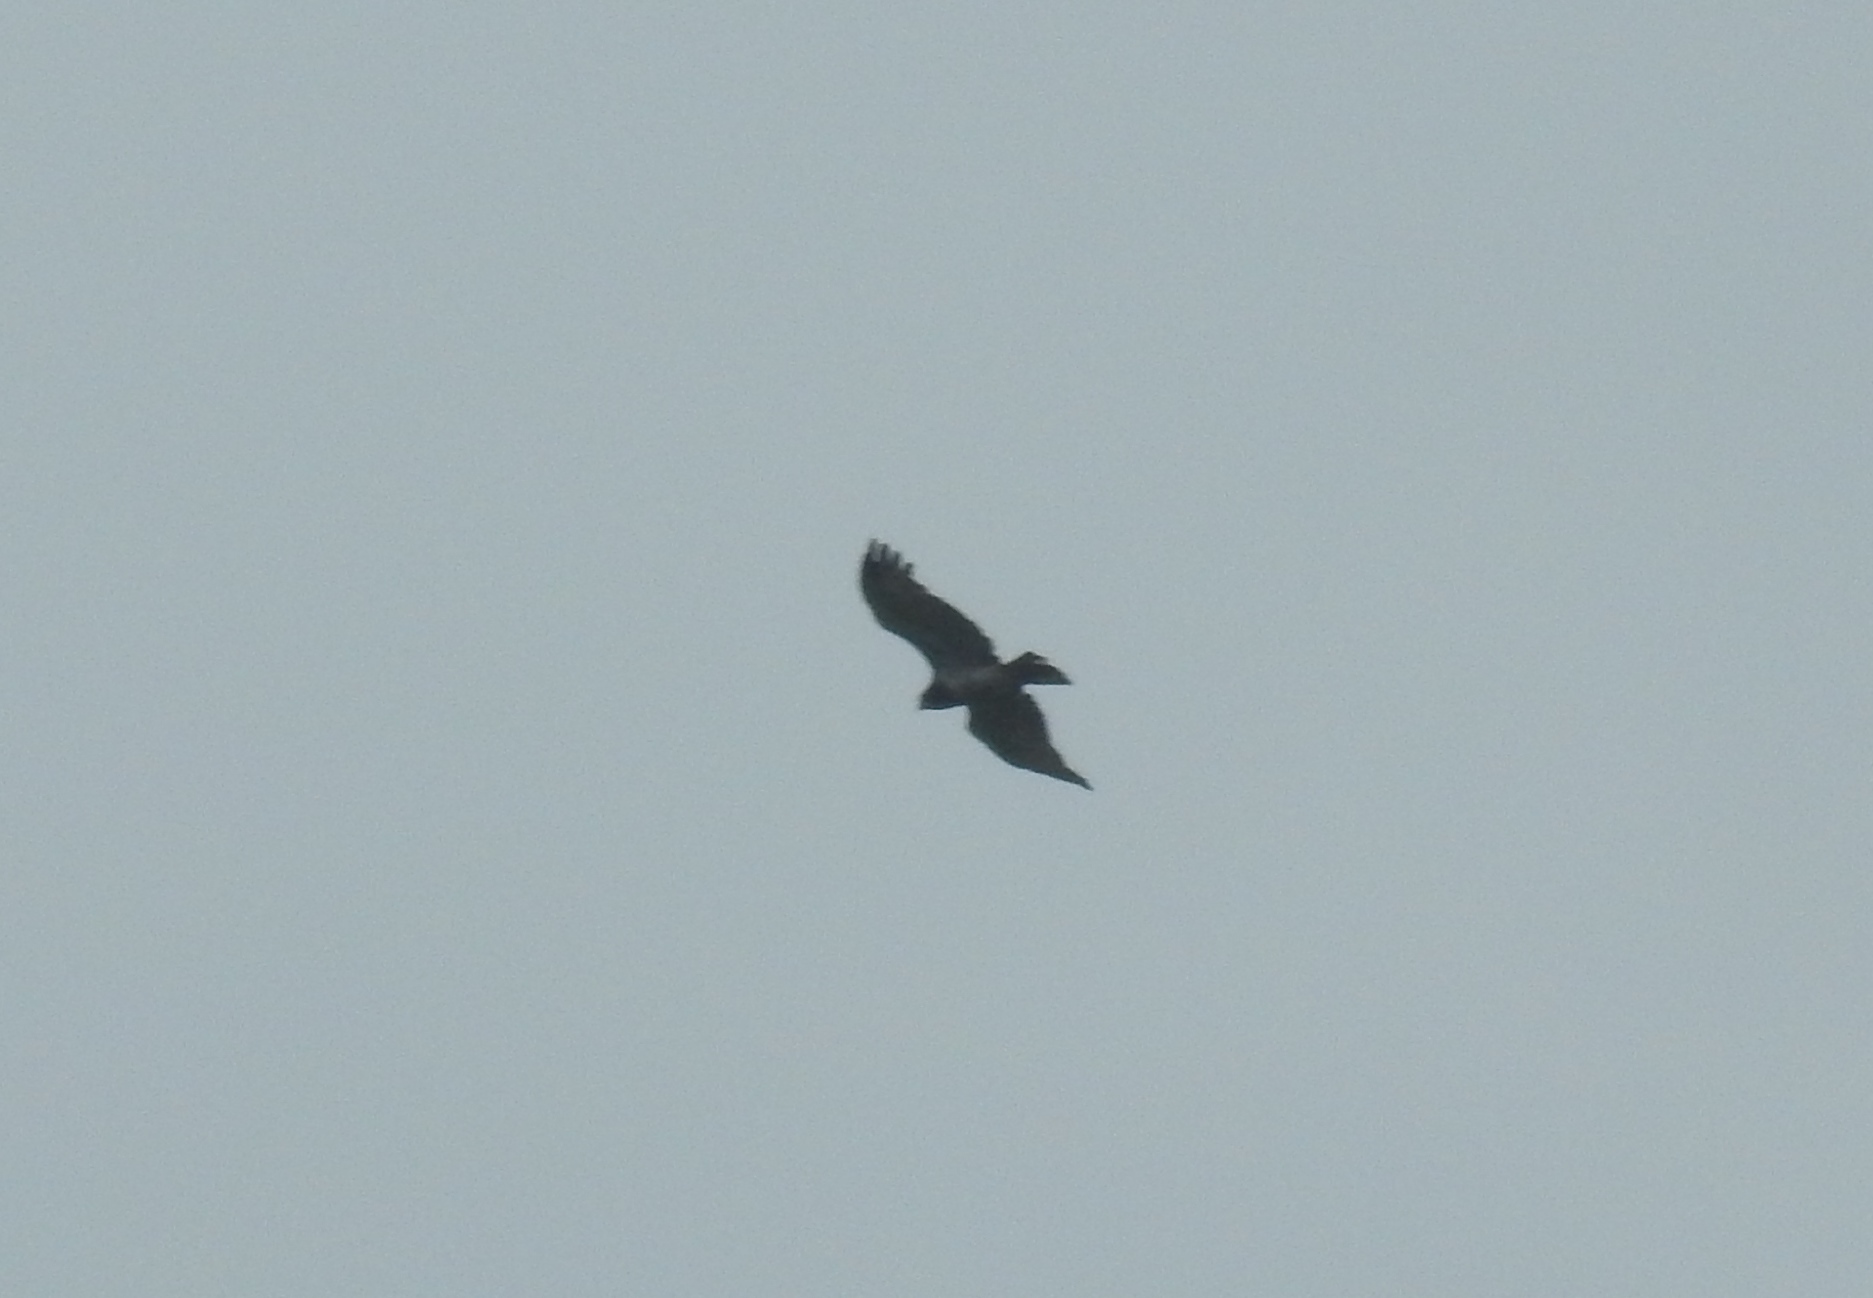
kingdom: Animalia
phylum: Chordata
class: Aves
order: Accipitriformes
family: Accipitridae
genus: Circaetus
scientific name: Circaetus gallicus
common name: Short-toed snake eagle
